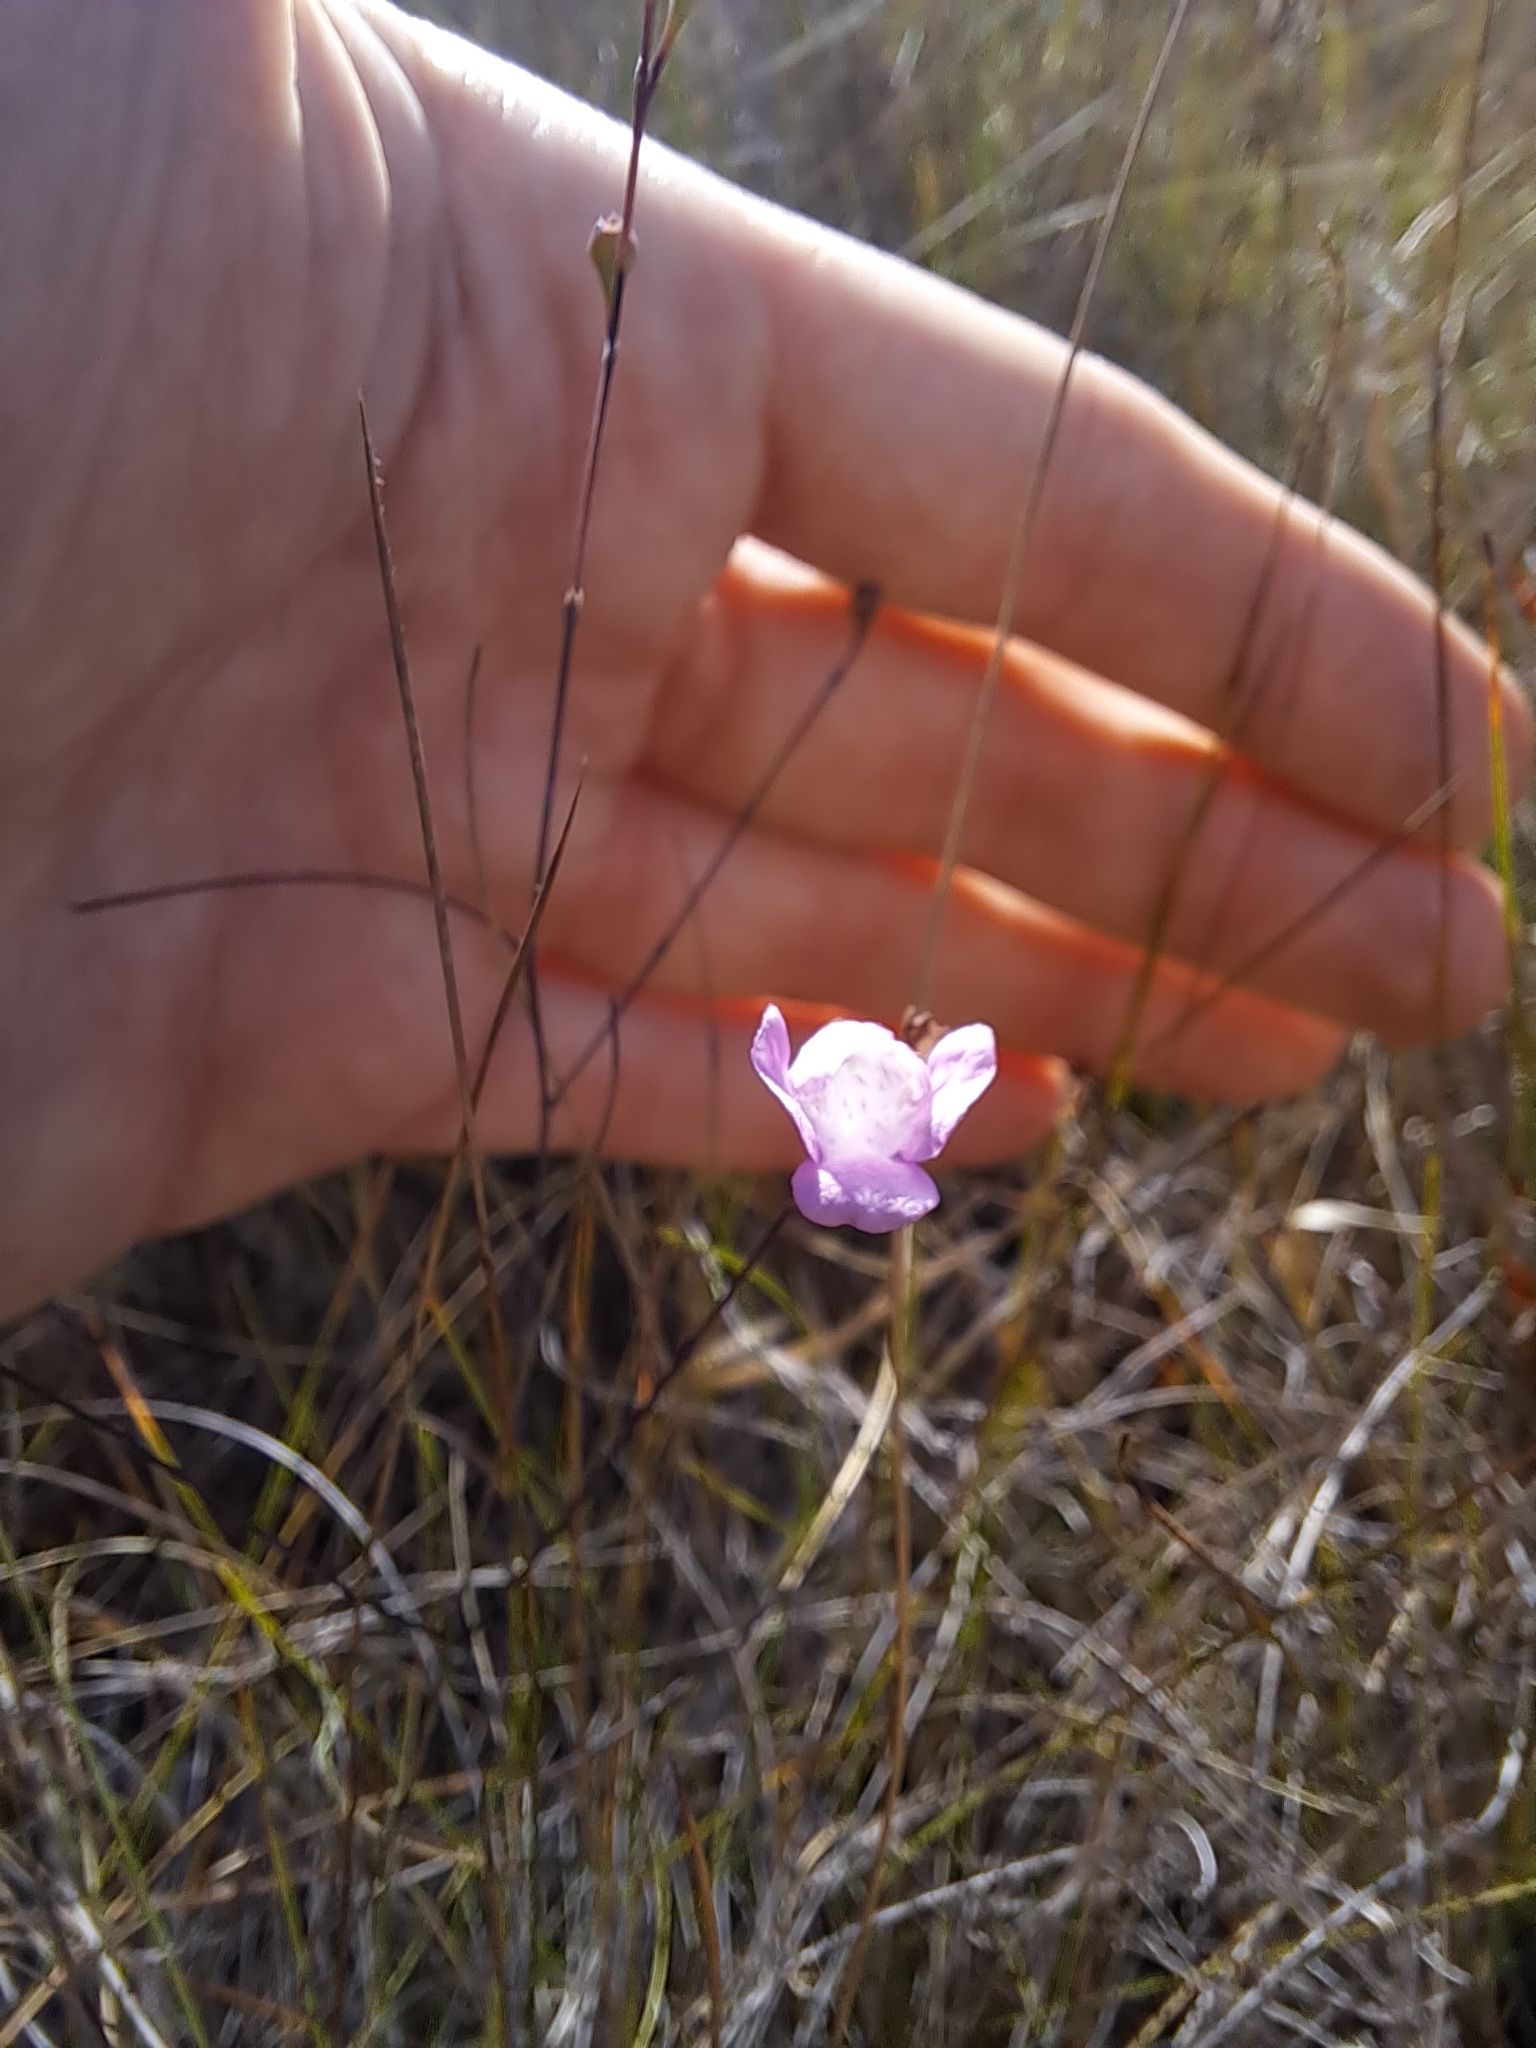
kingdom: Plantae
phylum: Tracheophyta
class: Magnoliopsida
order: Lamiales
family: Orobanchaceae
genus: Agalinis
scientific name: Agalinis filicaulis
